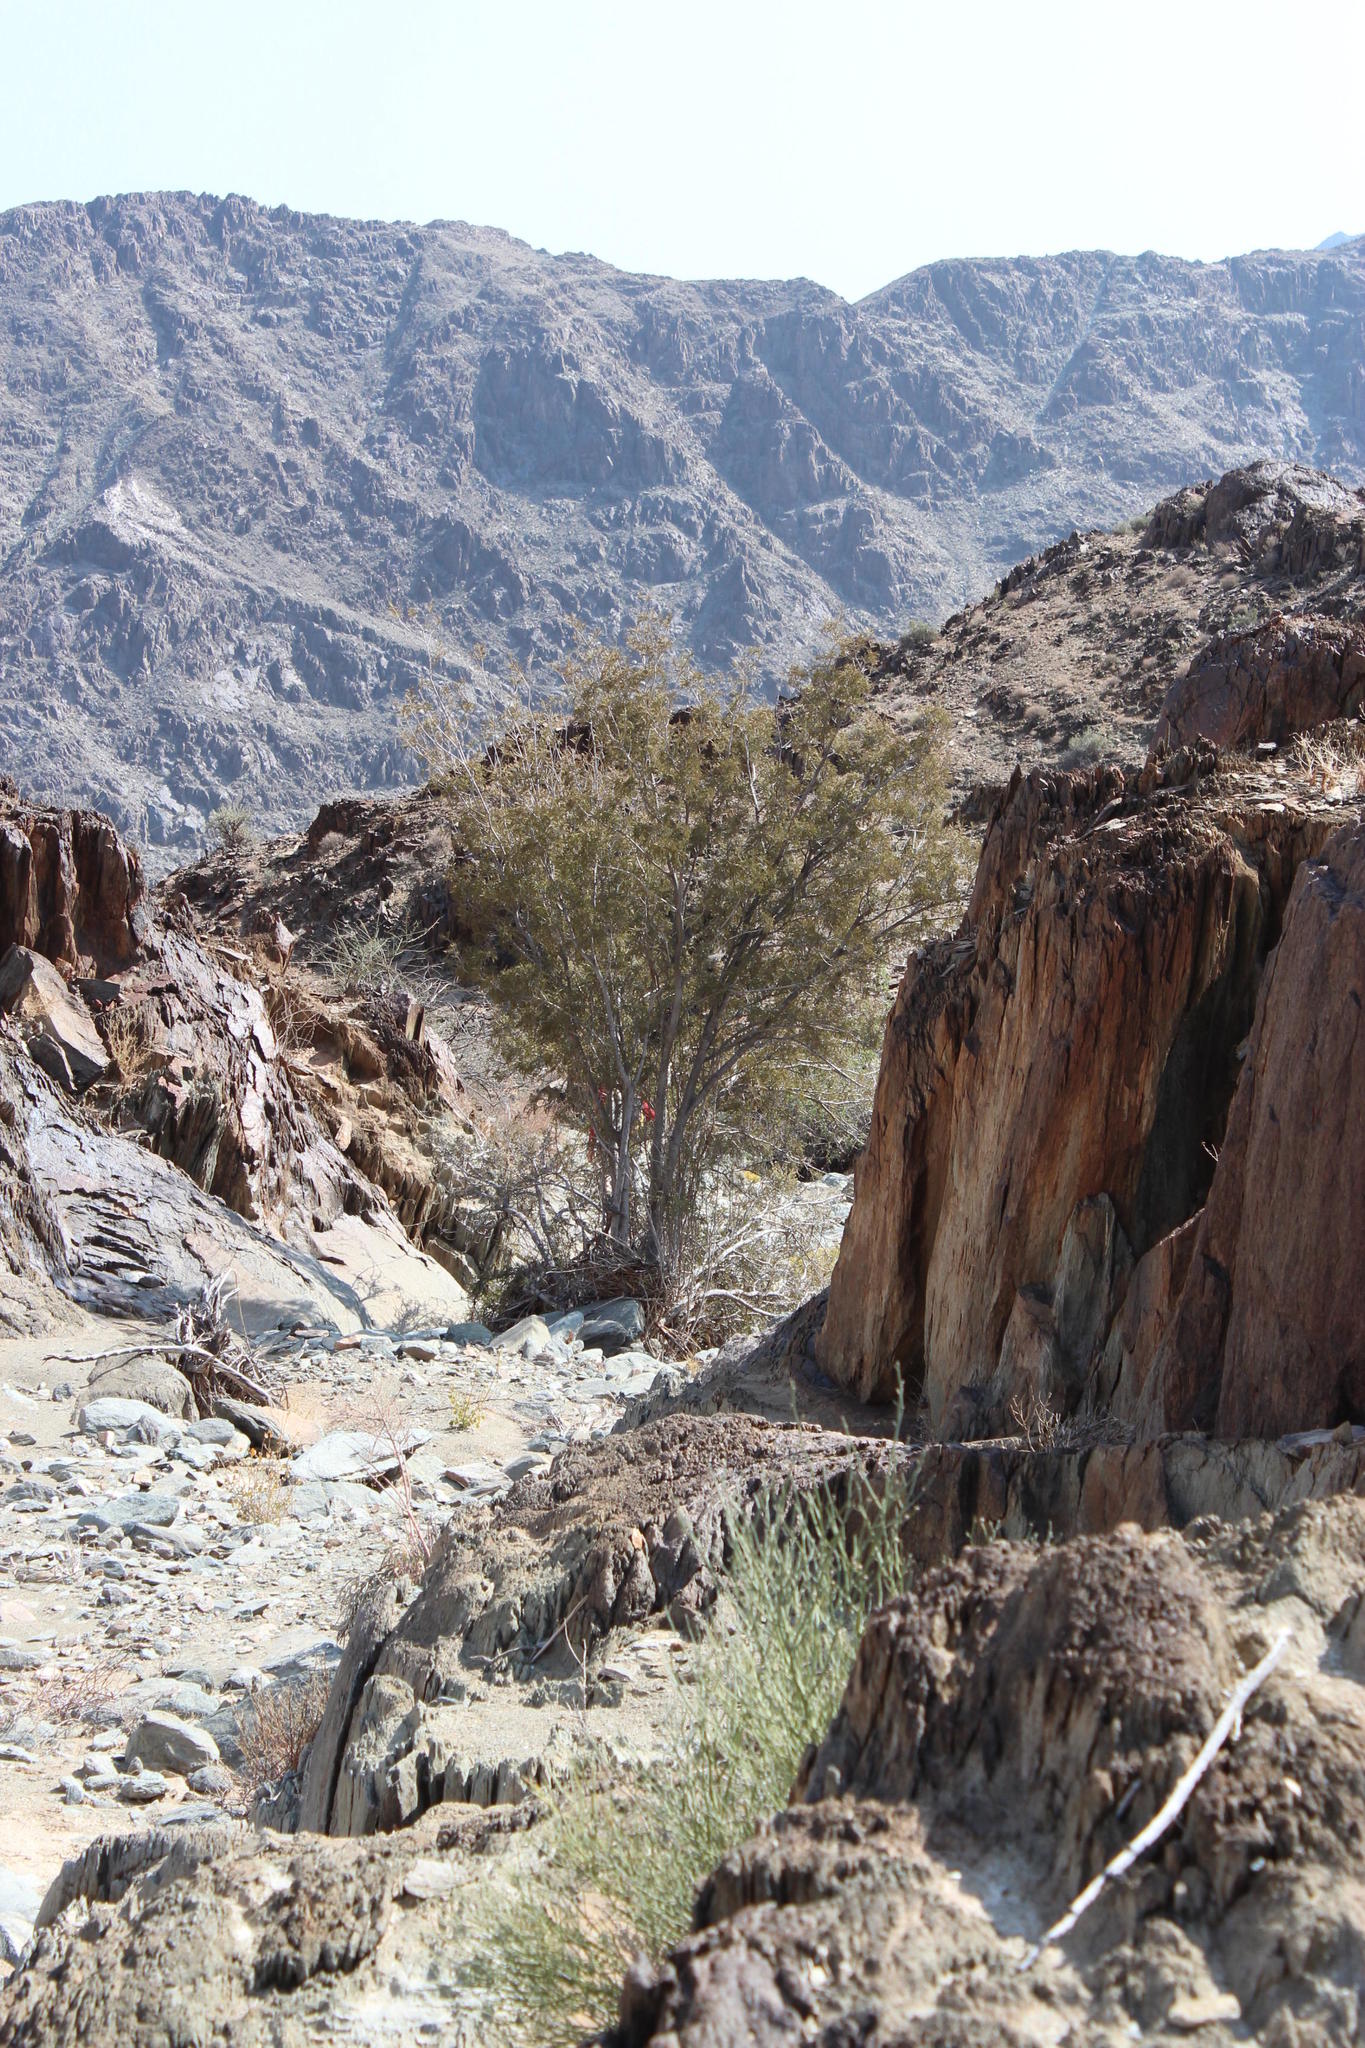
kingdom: Plantae
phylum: Tracheophyta
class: Magnoliopsida
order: Fabales
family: Fabaceae
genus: Schotia
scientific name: Schotia afra
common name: Hottentot's bean
